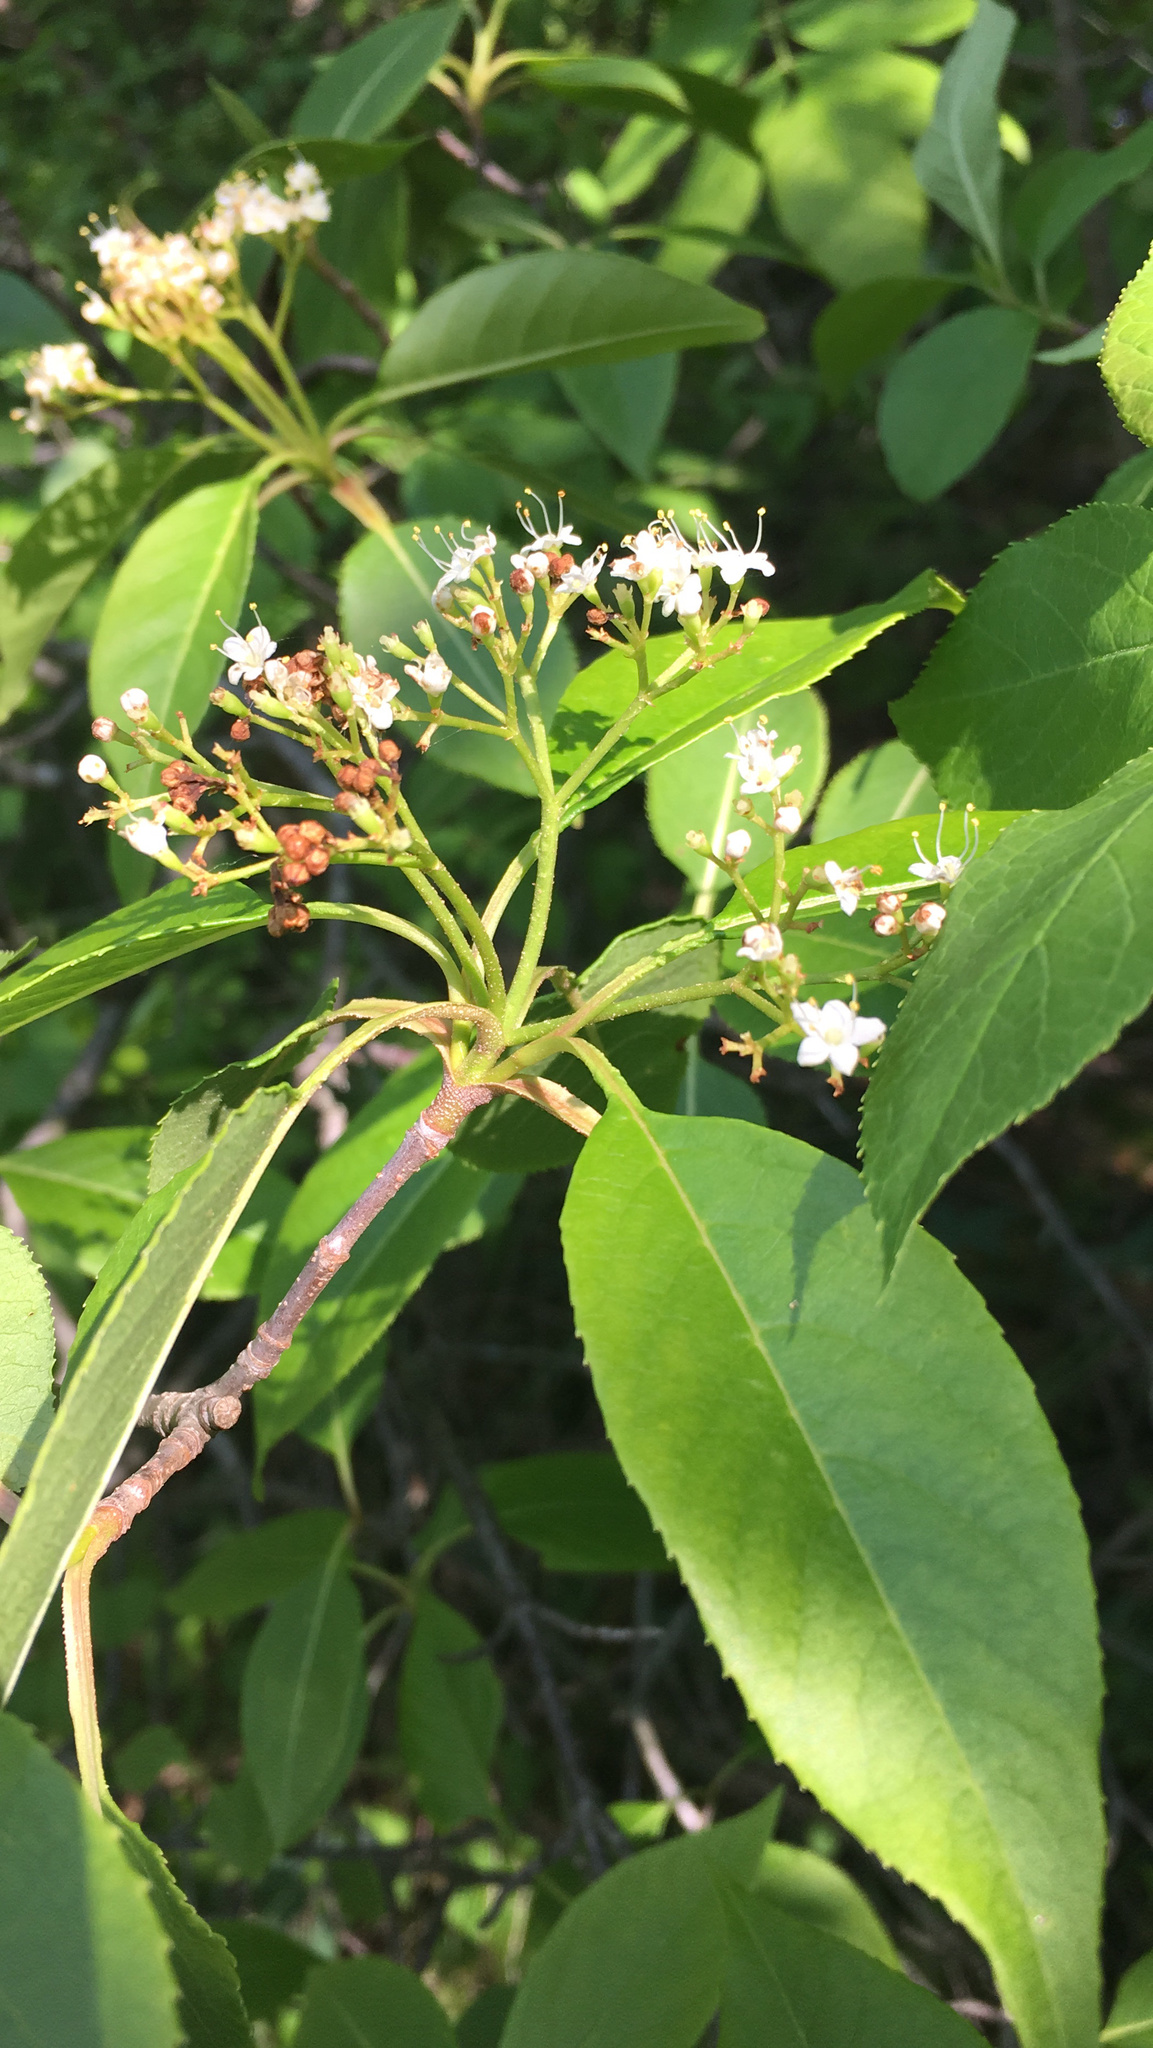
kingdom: Plantae
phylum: Tracheophyta
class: Magnoliopsida
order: Dipsacales
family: Viburnaceae
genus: Viburnum
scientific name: Viburnum lentago
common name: Black haw
